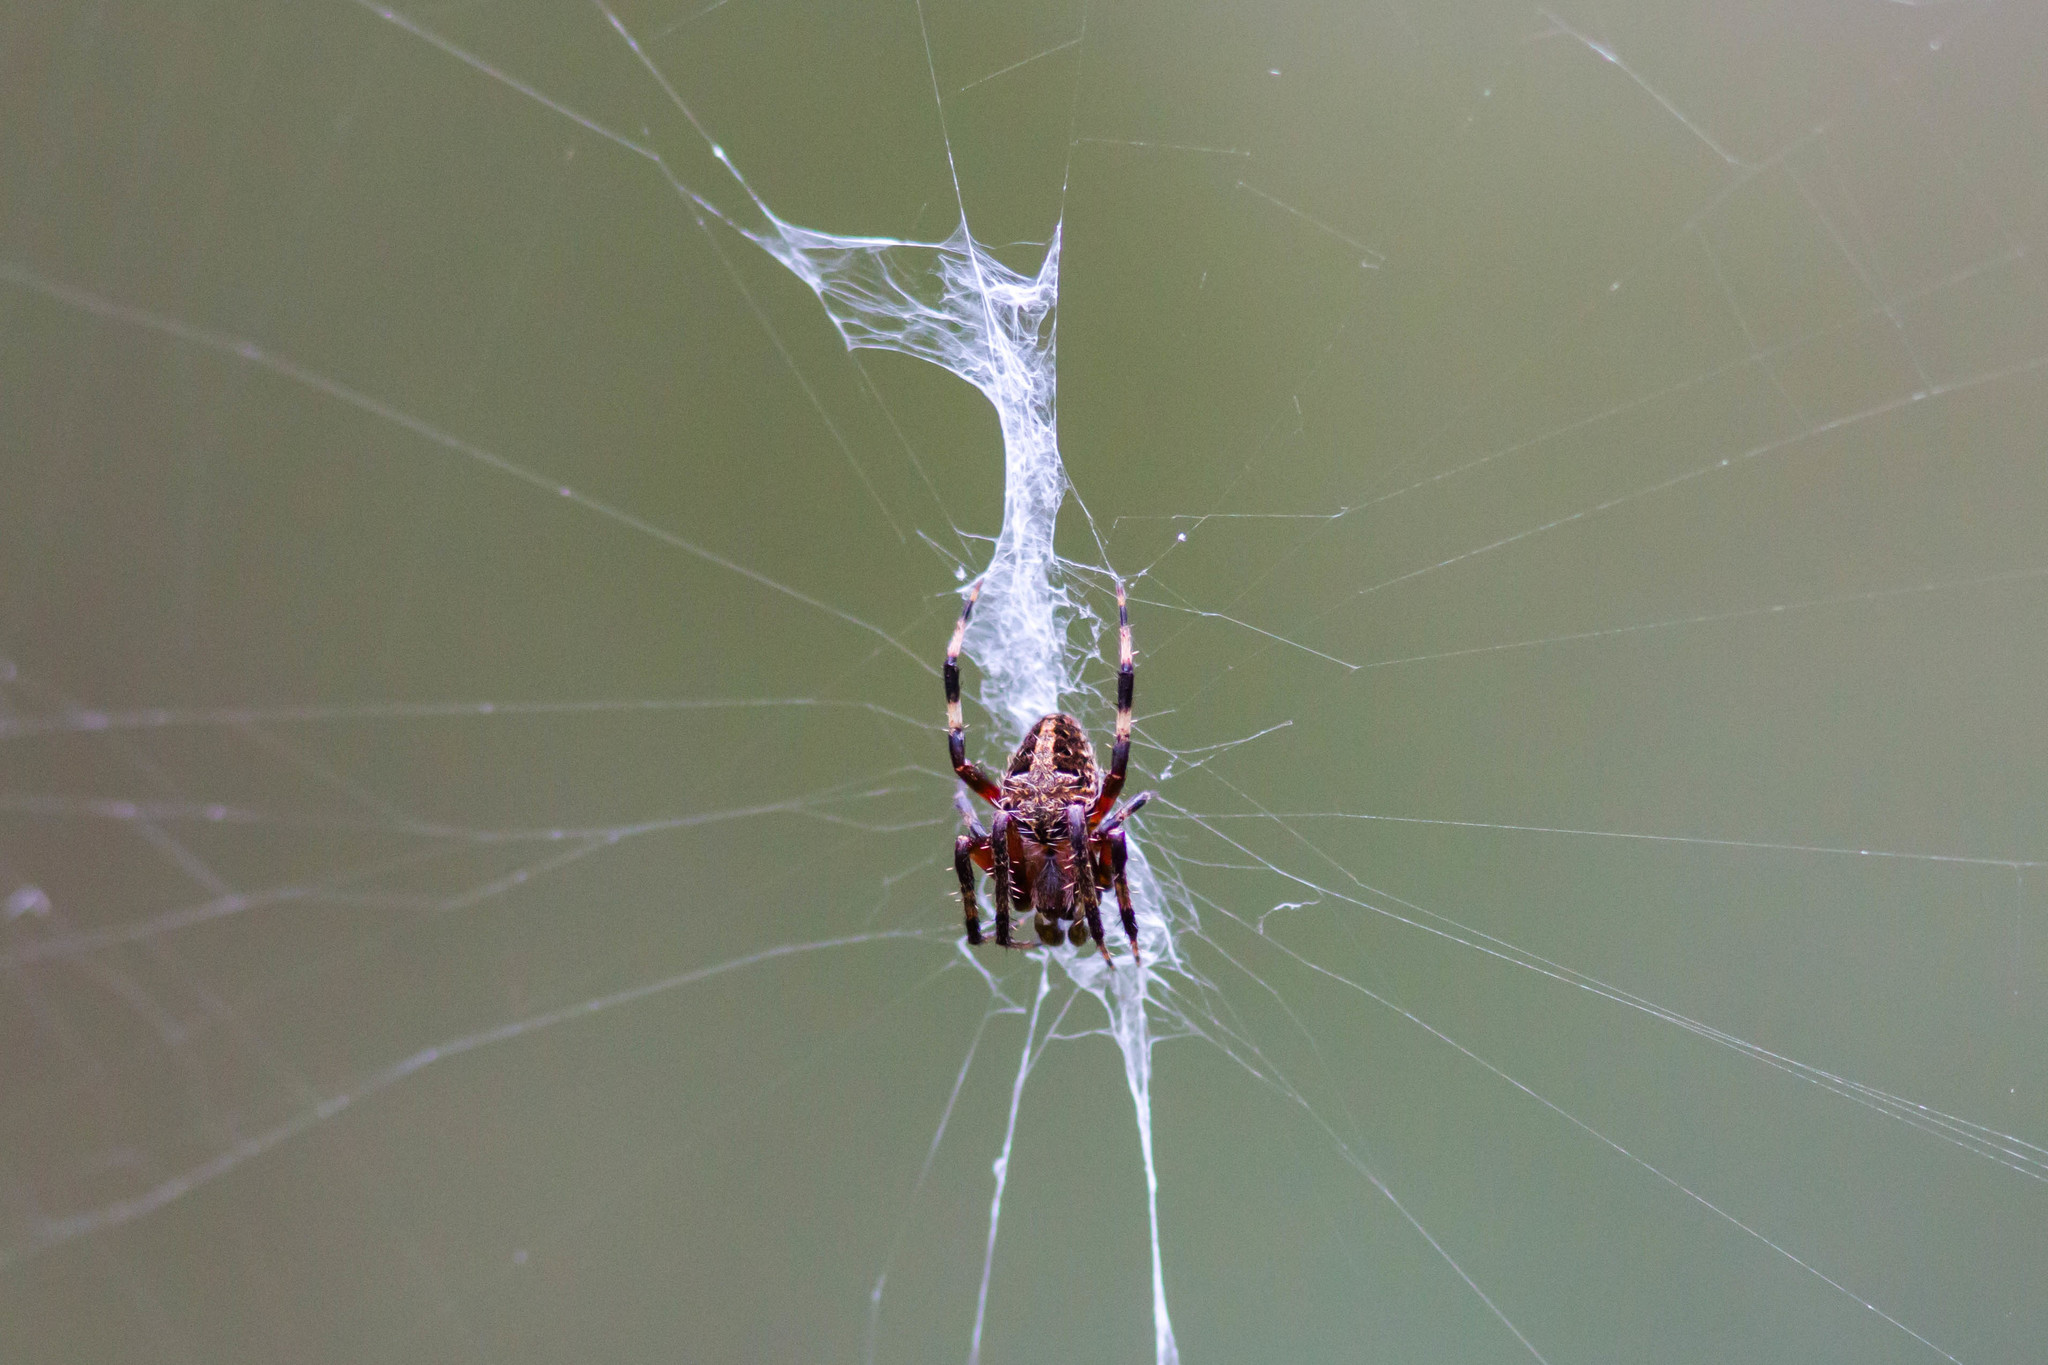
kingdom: Animalia
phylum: Arthropoda
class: Arachnida
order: Araneae
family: Araneidae
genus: Neoscona
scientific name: Neoscona domiciliorum
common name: Red-femured spotted orbweaver
